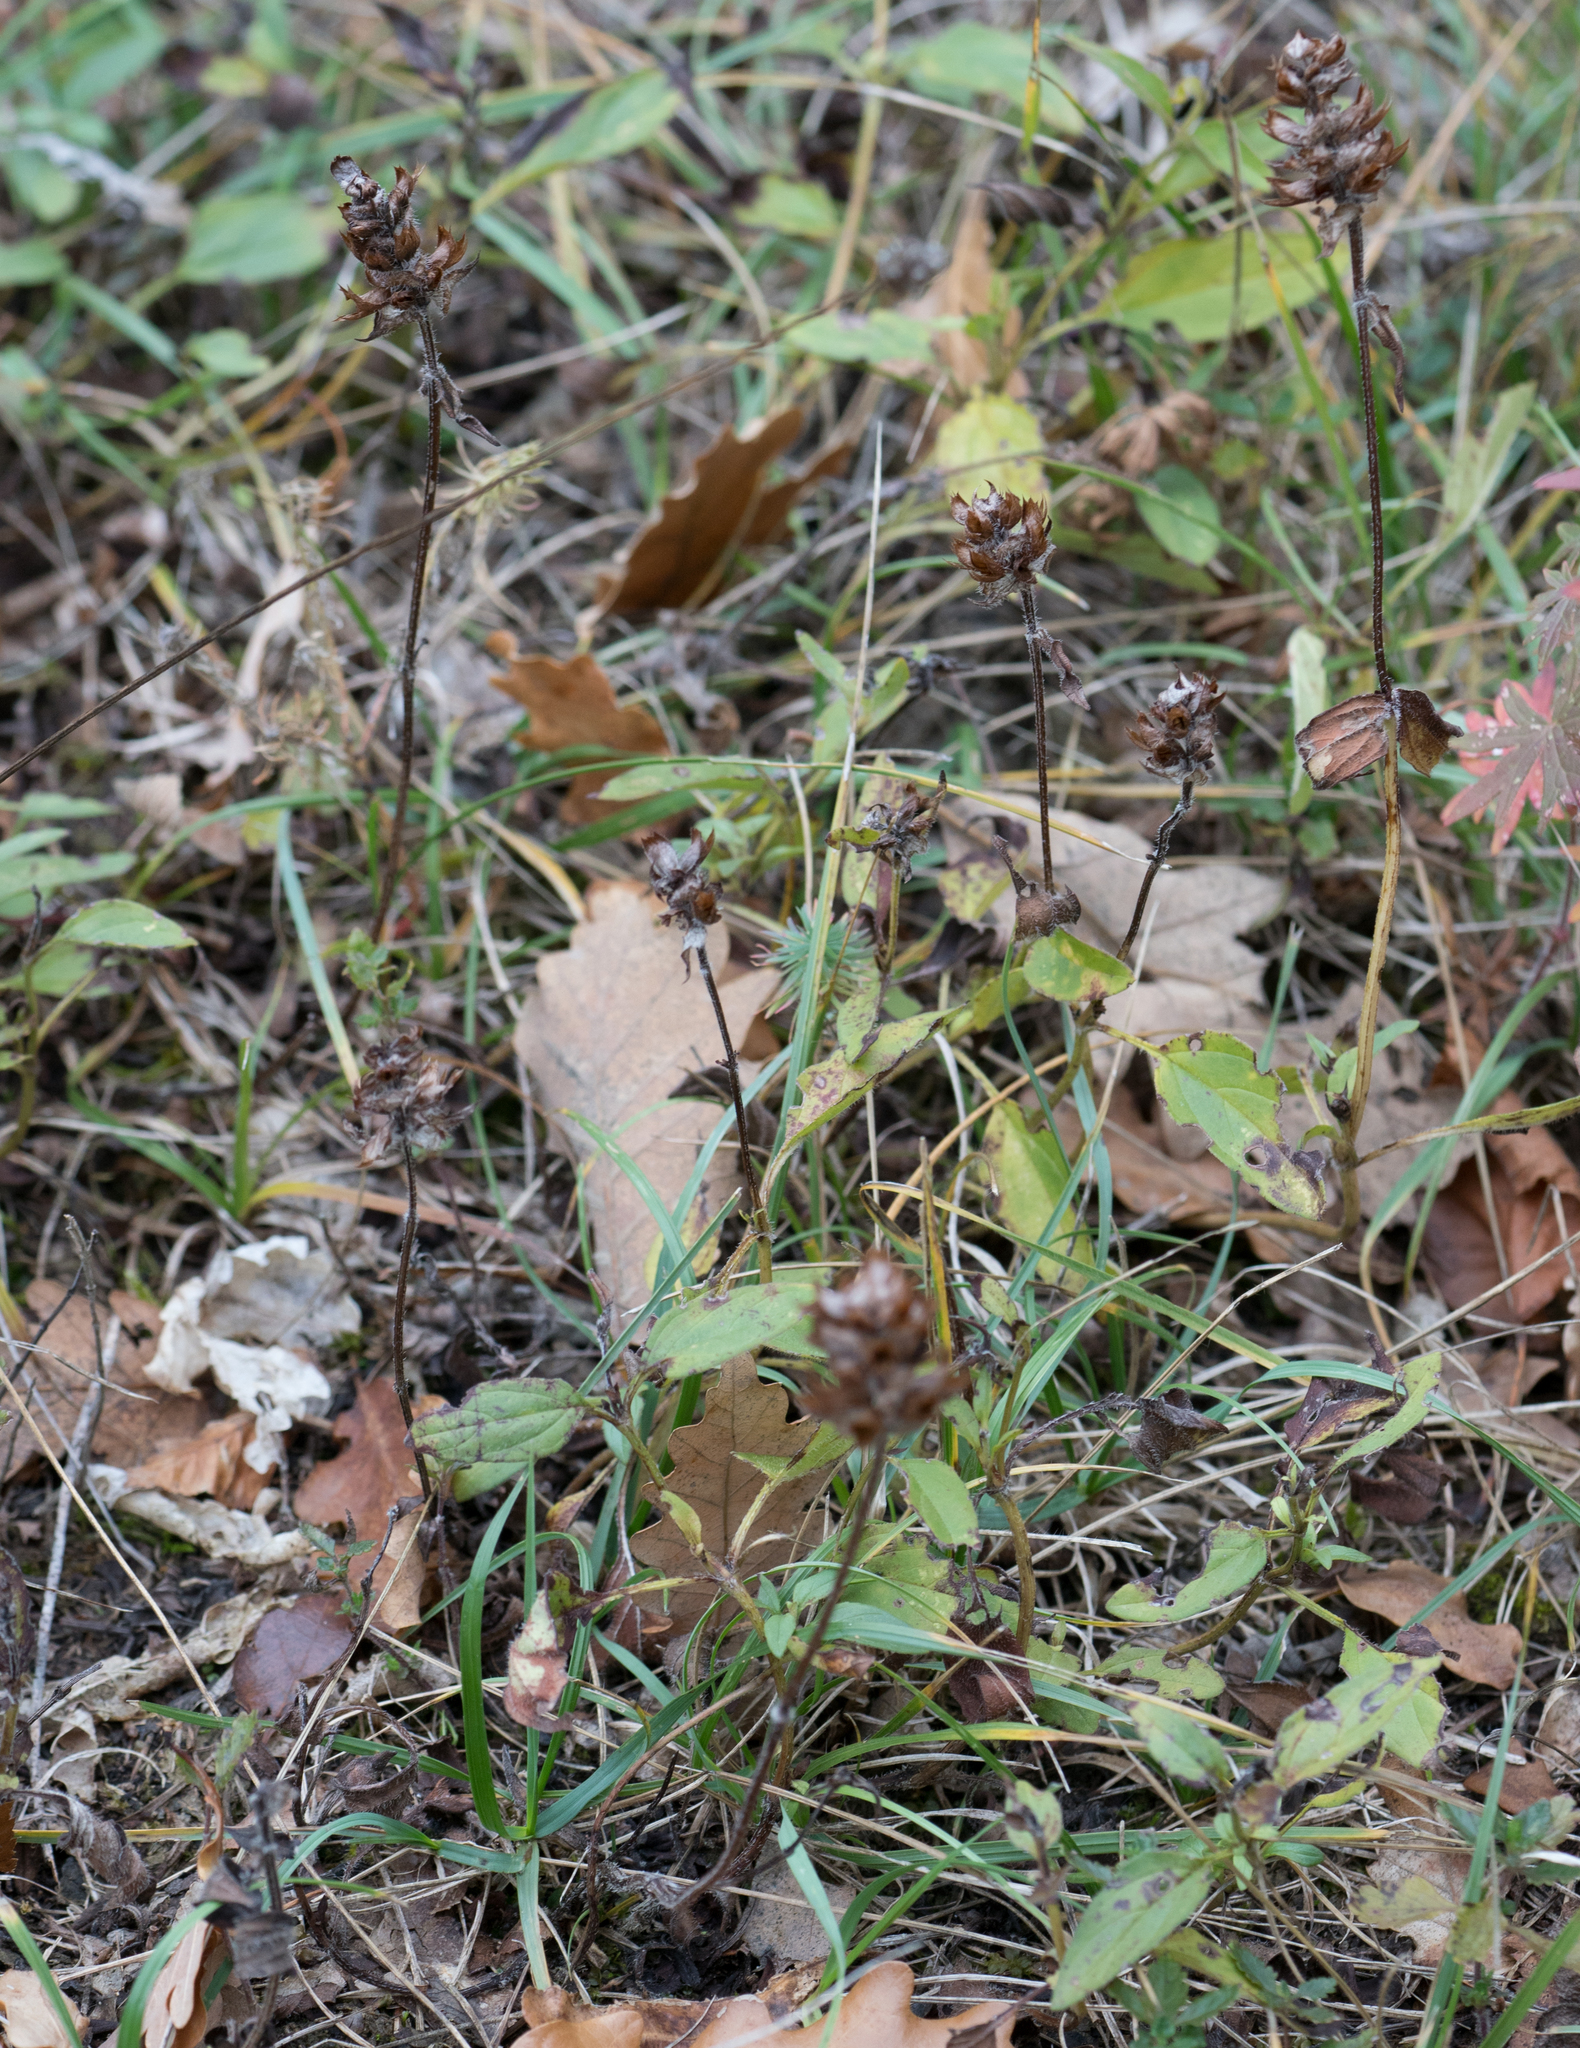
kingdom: Plantae
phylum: Tracheophyta
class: Magnoliopsida
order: Lamiales
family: Lamiaceae
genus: Prunella
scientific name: Prunella vulgaris
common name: Heal-all
